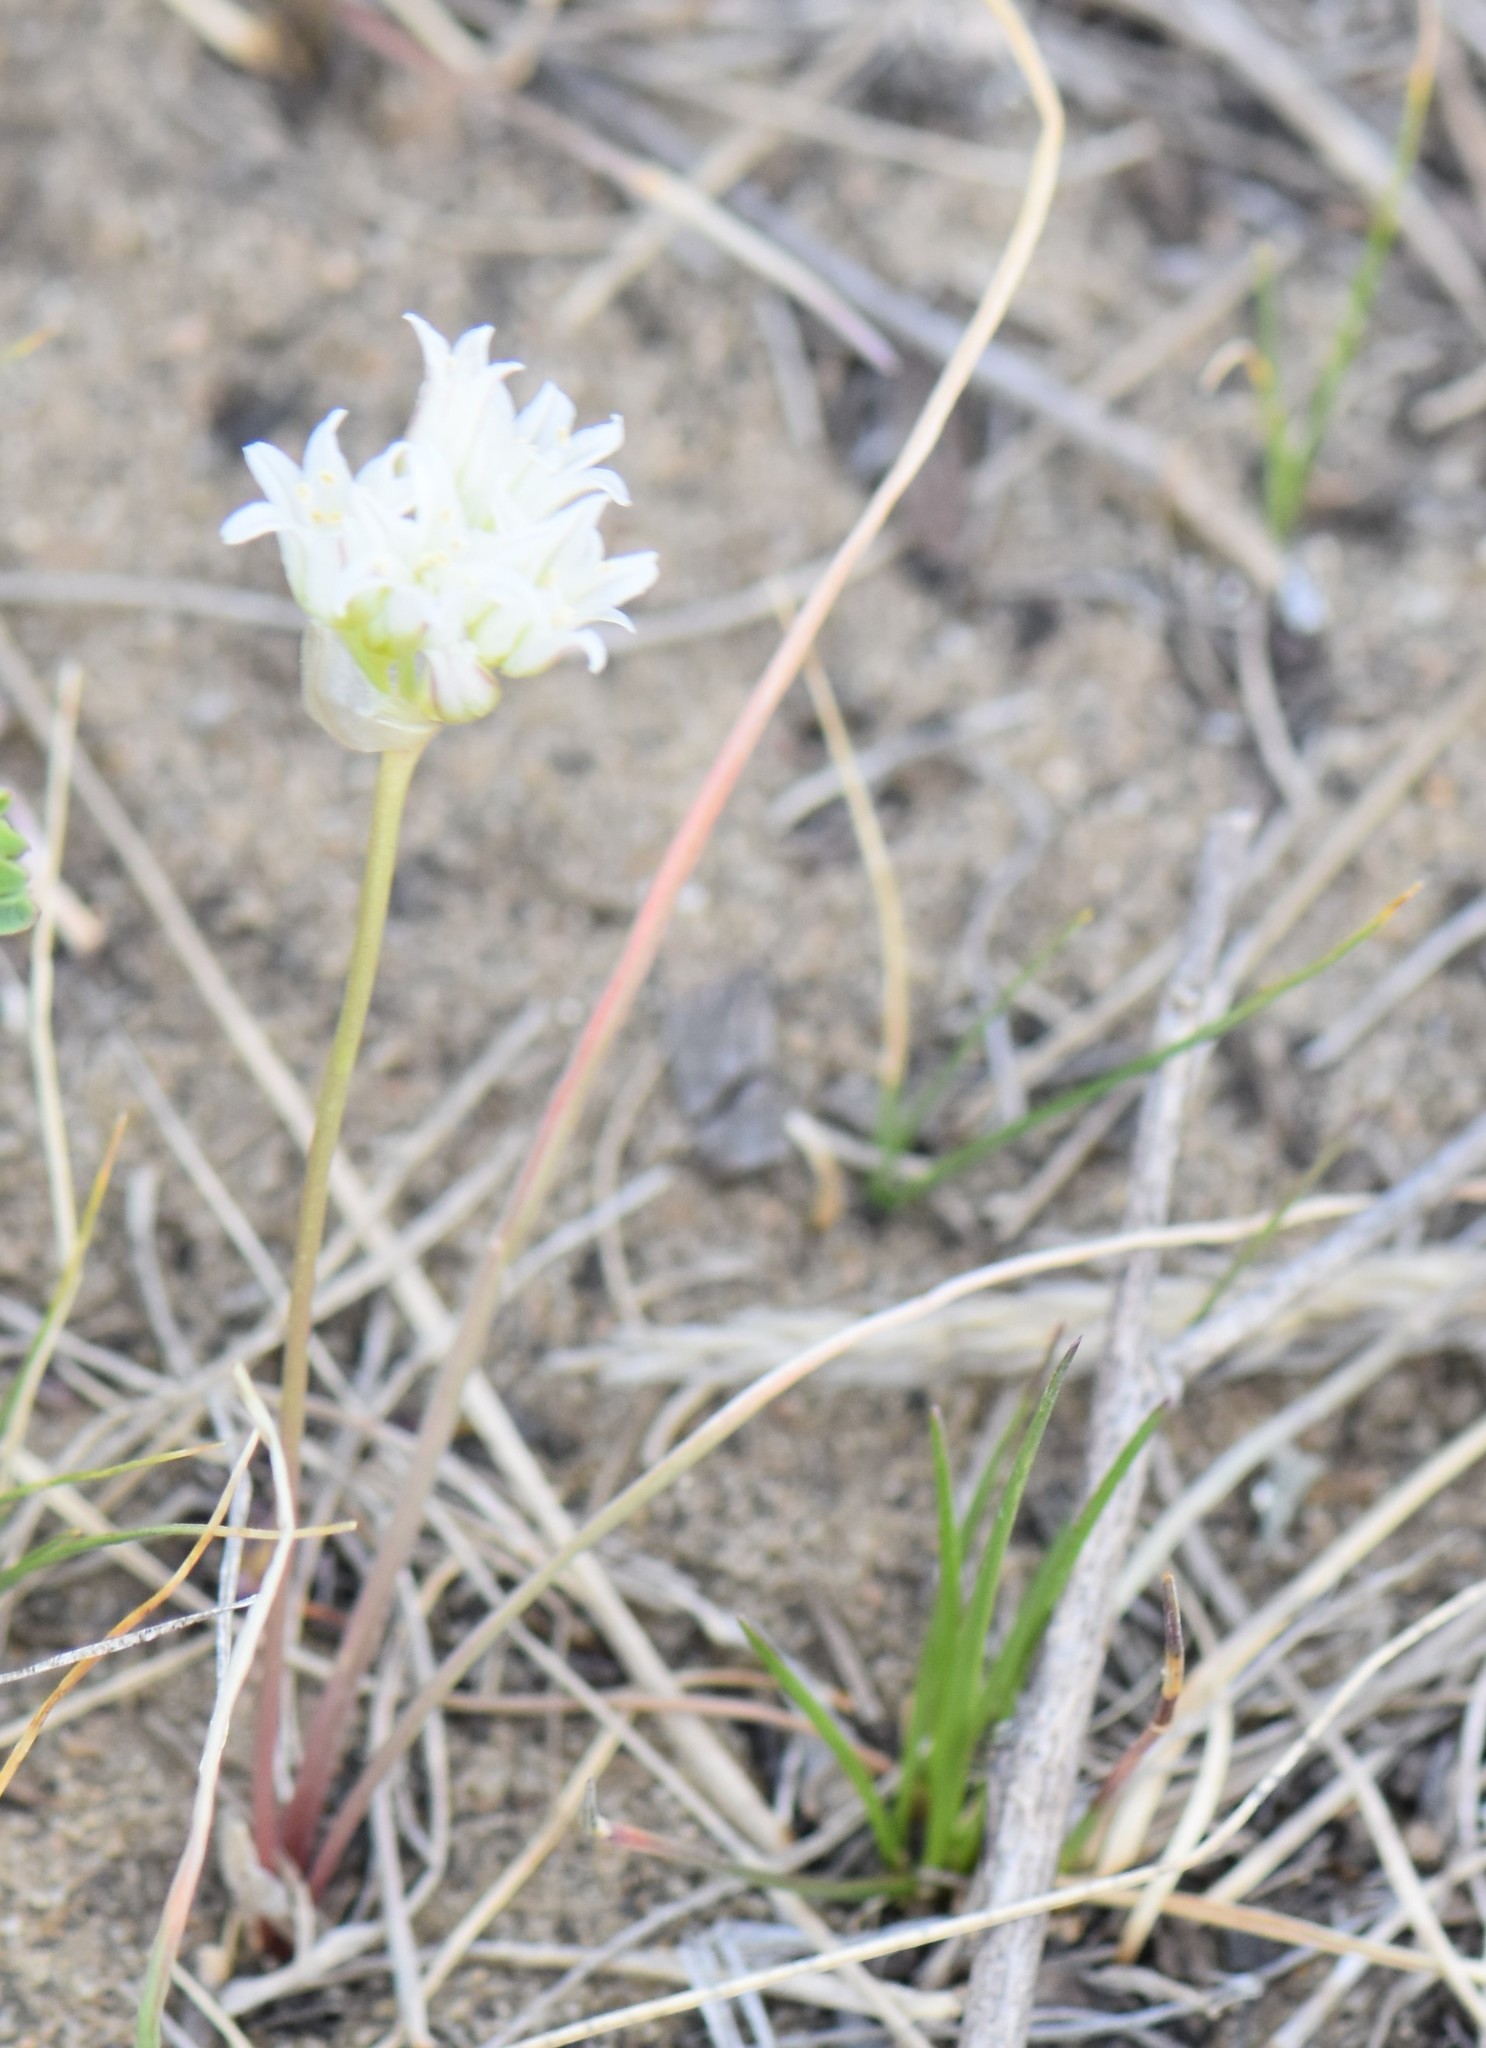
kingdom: Plantae
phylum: Tracheophyta
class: Liliopsida
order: Asparagales
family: Amaryllidaceae
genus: Allium
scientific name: Allium textile
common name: Prairie onion
